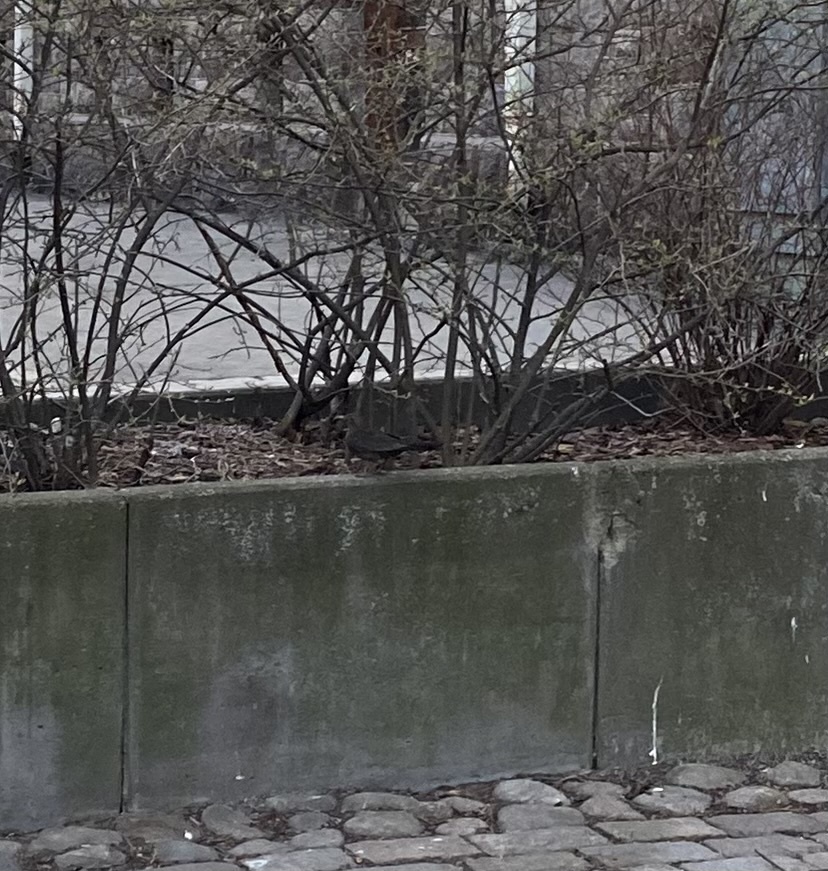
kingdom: Animalia
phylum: Chordata
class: Aves
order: Passeriformes
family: Turdidae
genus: Turdus
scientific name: Turdus merula
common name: Common blackbird
